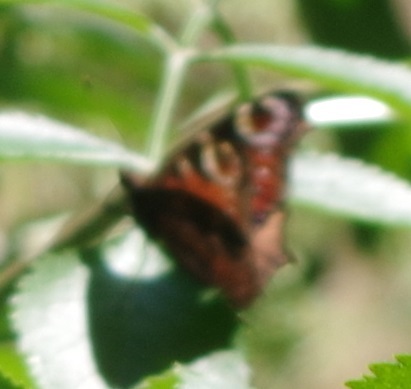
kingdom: Animalia
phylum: Arthropoda
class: Insecta
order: Lepidoptera
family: Nymphalidae
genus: Aglais
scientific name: Aglais io
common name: Peacock
